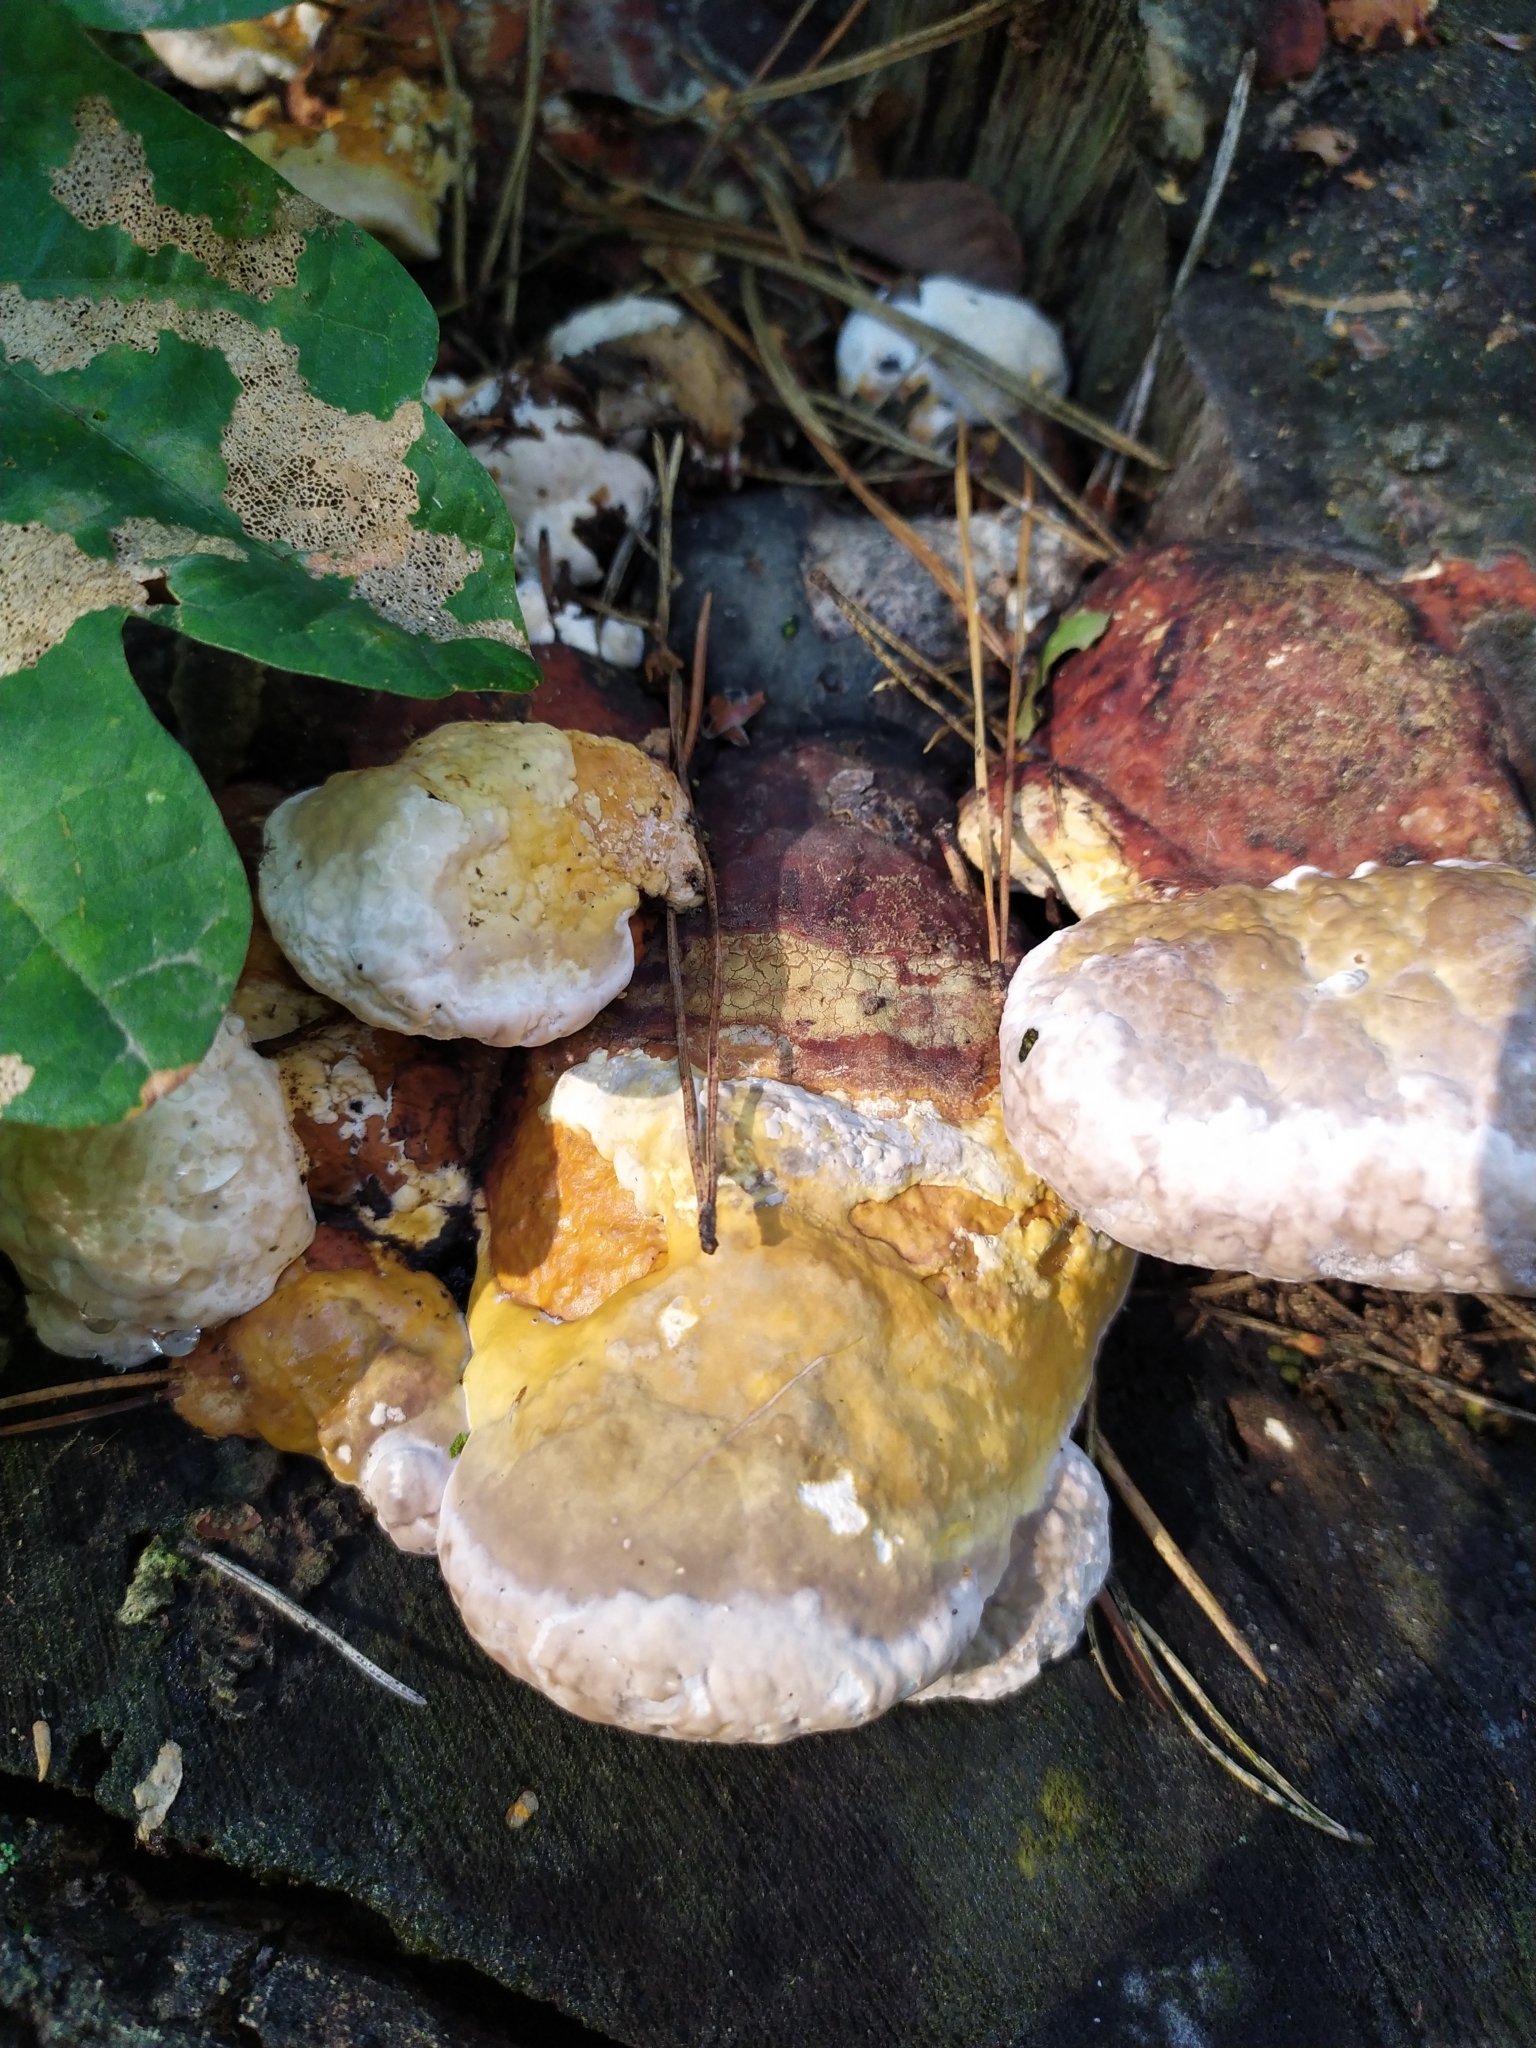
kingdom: Fungi
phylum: Basidiomycota
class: Agaricomycetes
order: Polyporales
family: Fomitopsidaceae
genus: Fomitopsis
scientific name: Fomitopsis pinicola
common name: Red-belted bracket
